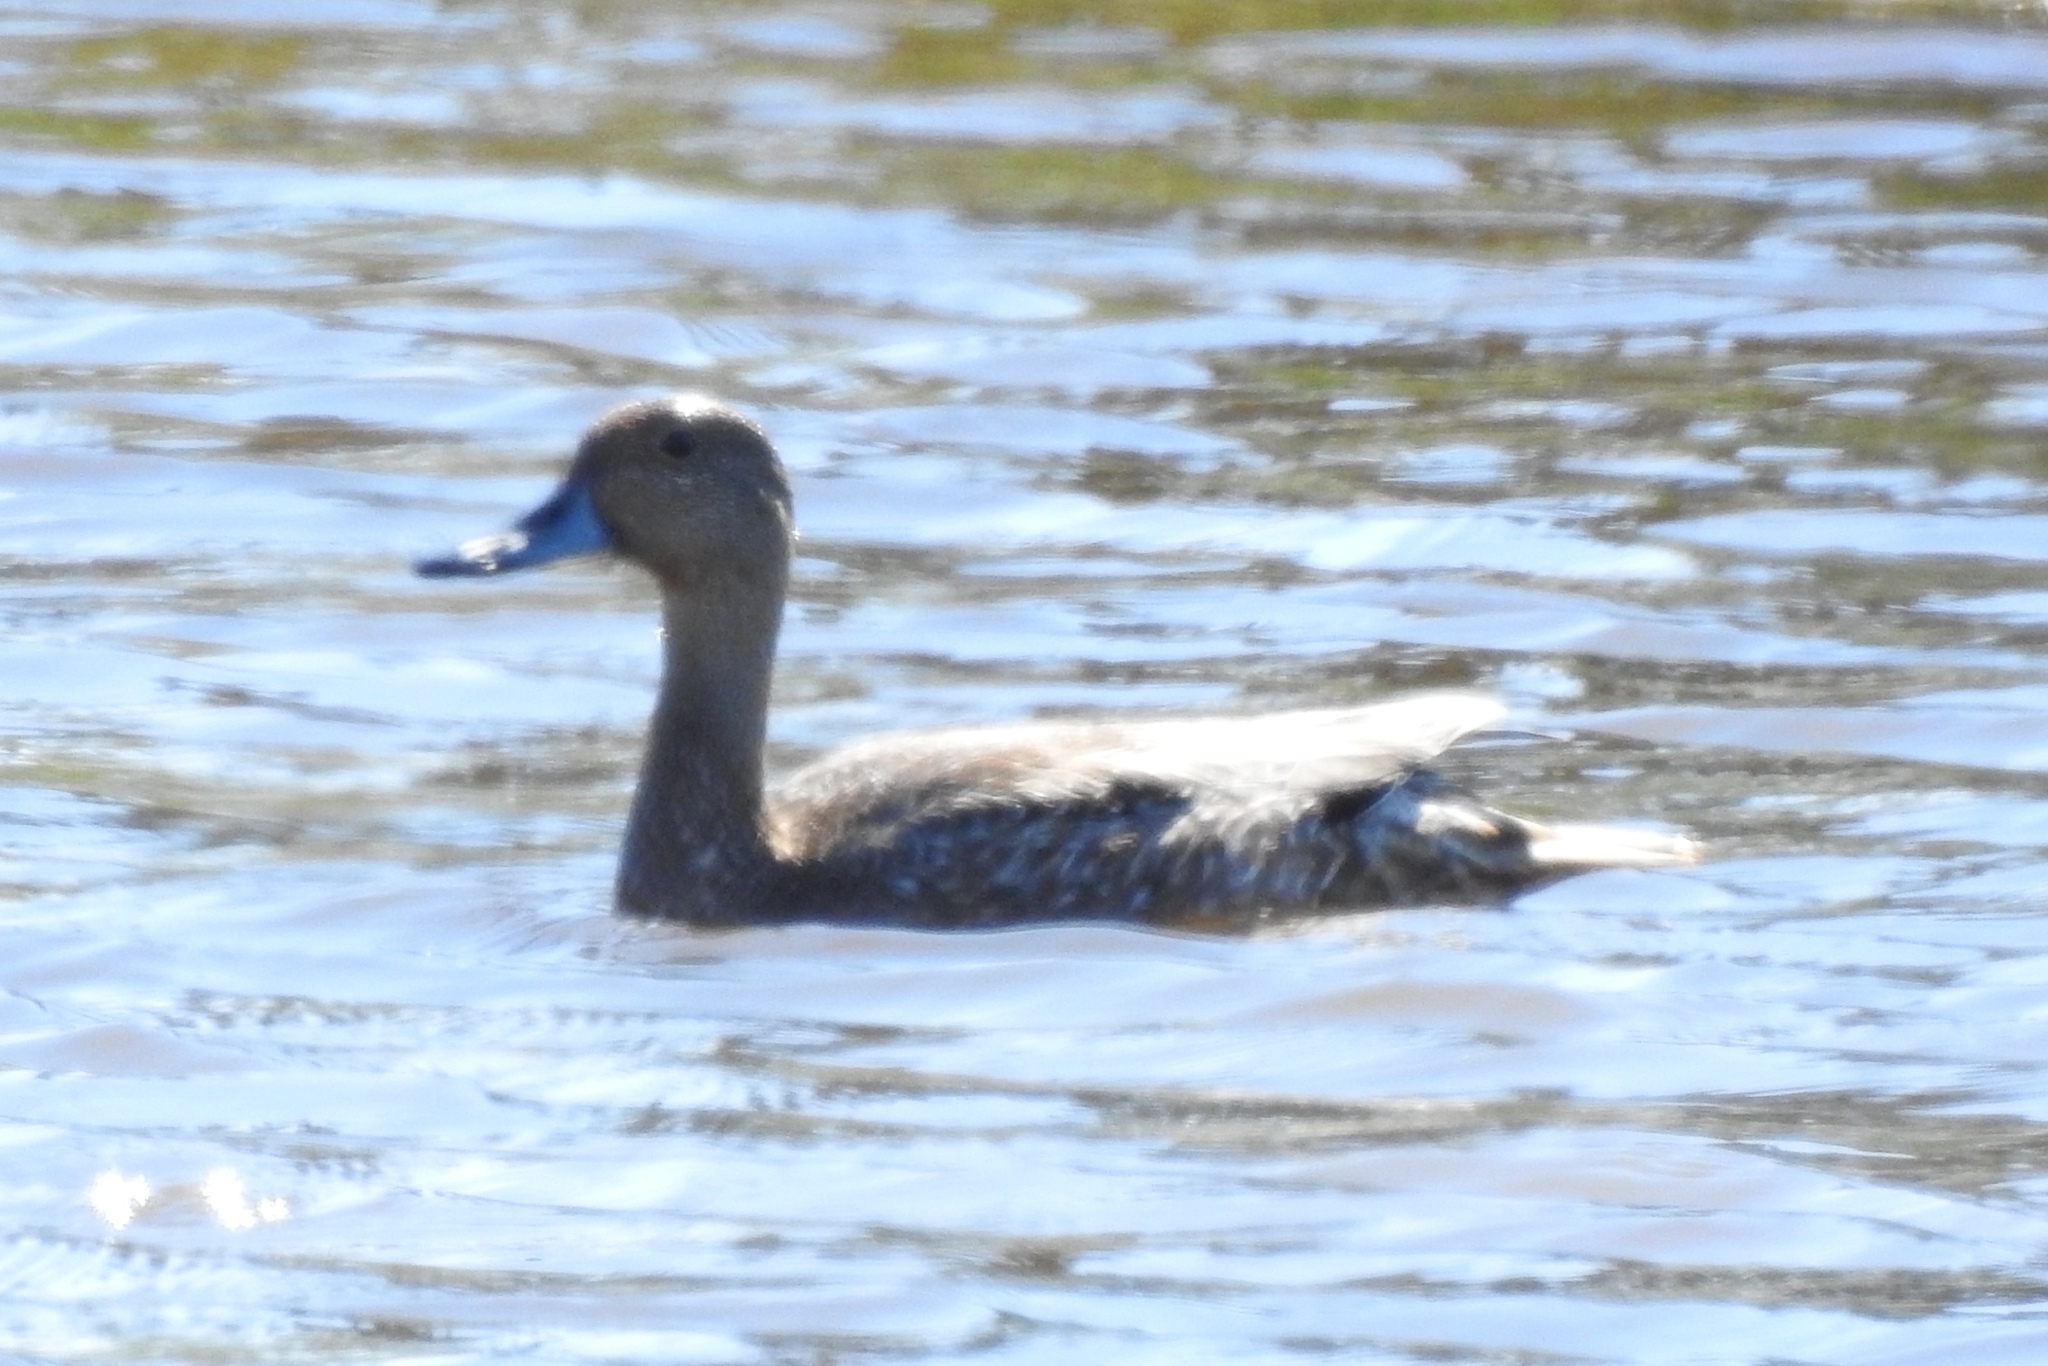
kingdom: Animalia
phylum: Chordata
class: Aves
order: Anseriformes
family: Anatidae
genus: Anas
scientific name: Anas acuta
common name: Northern pintail
